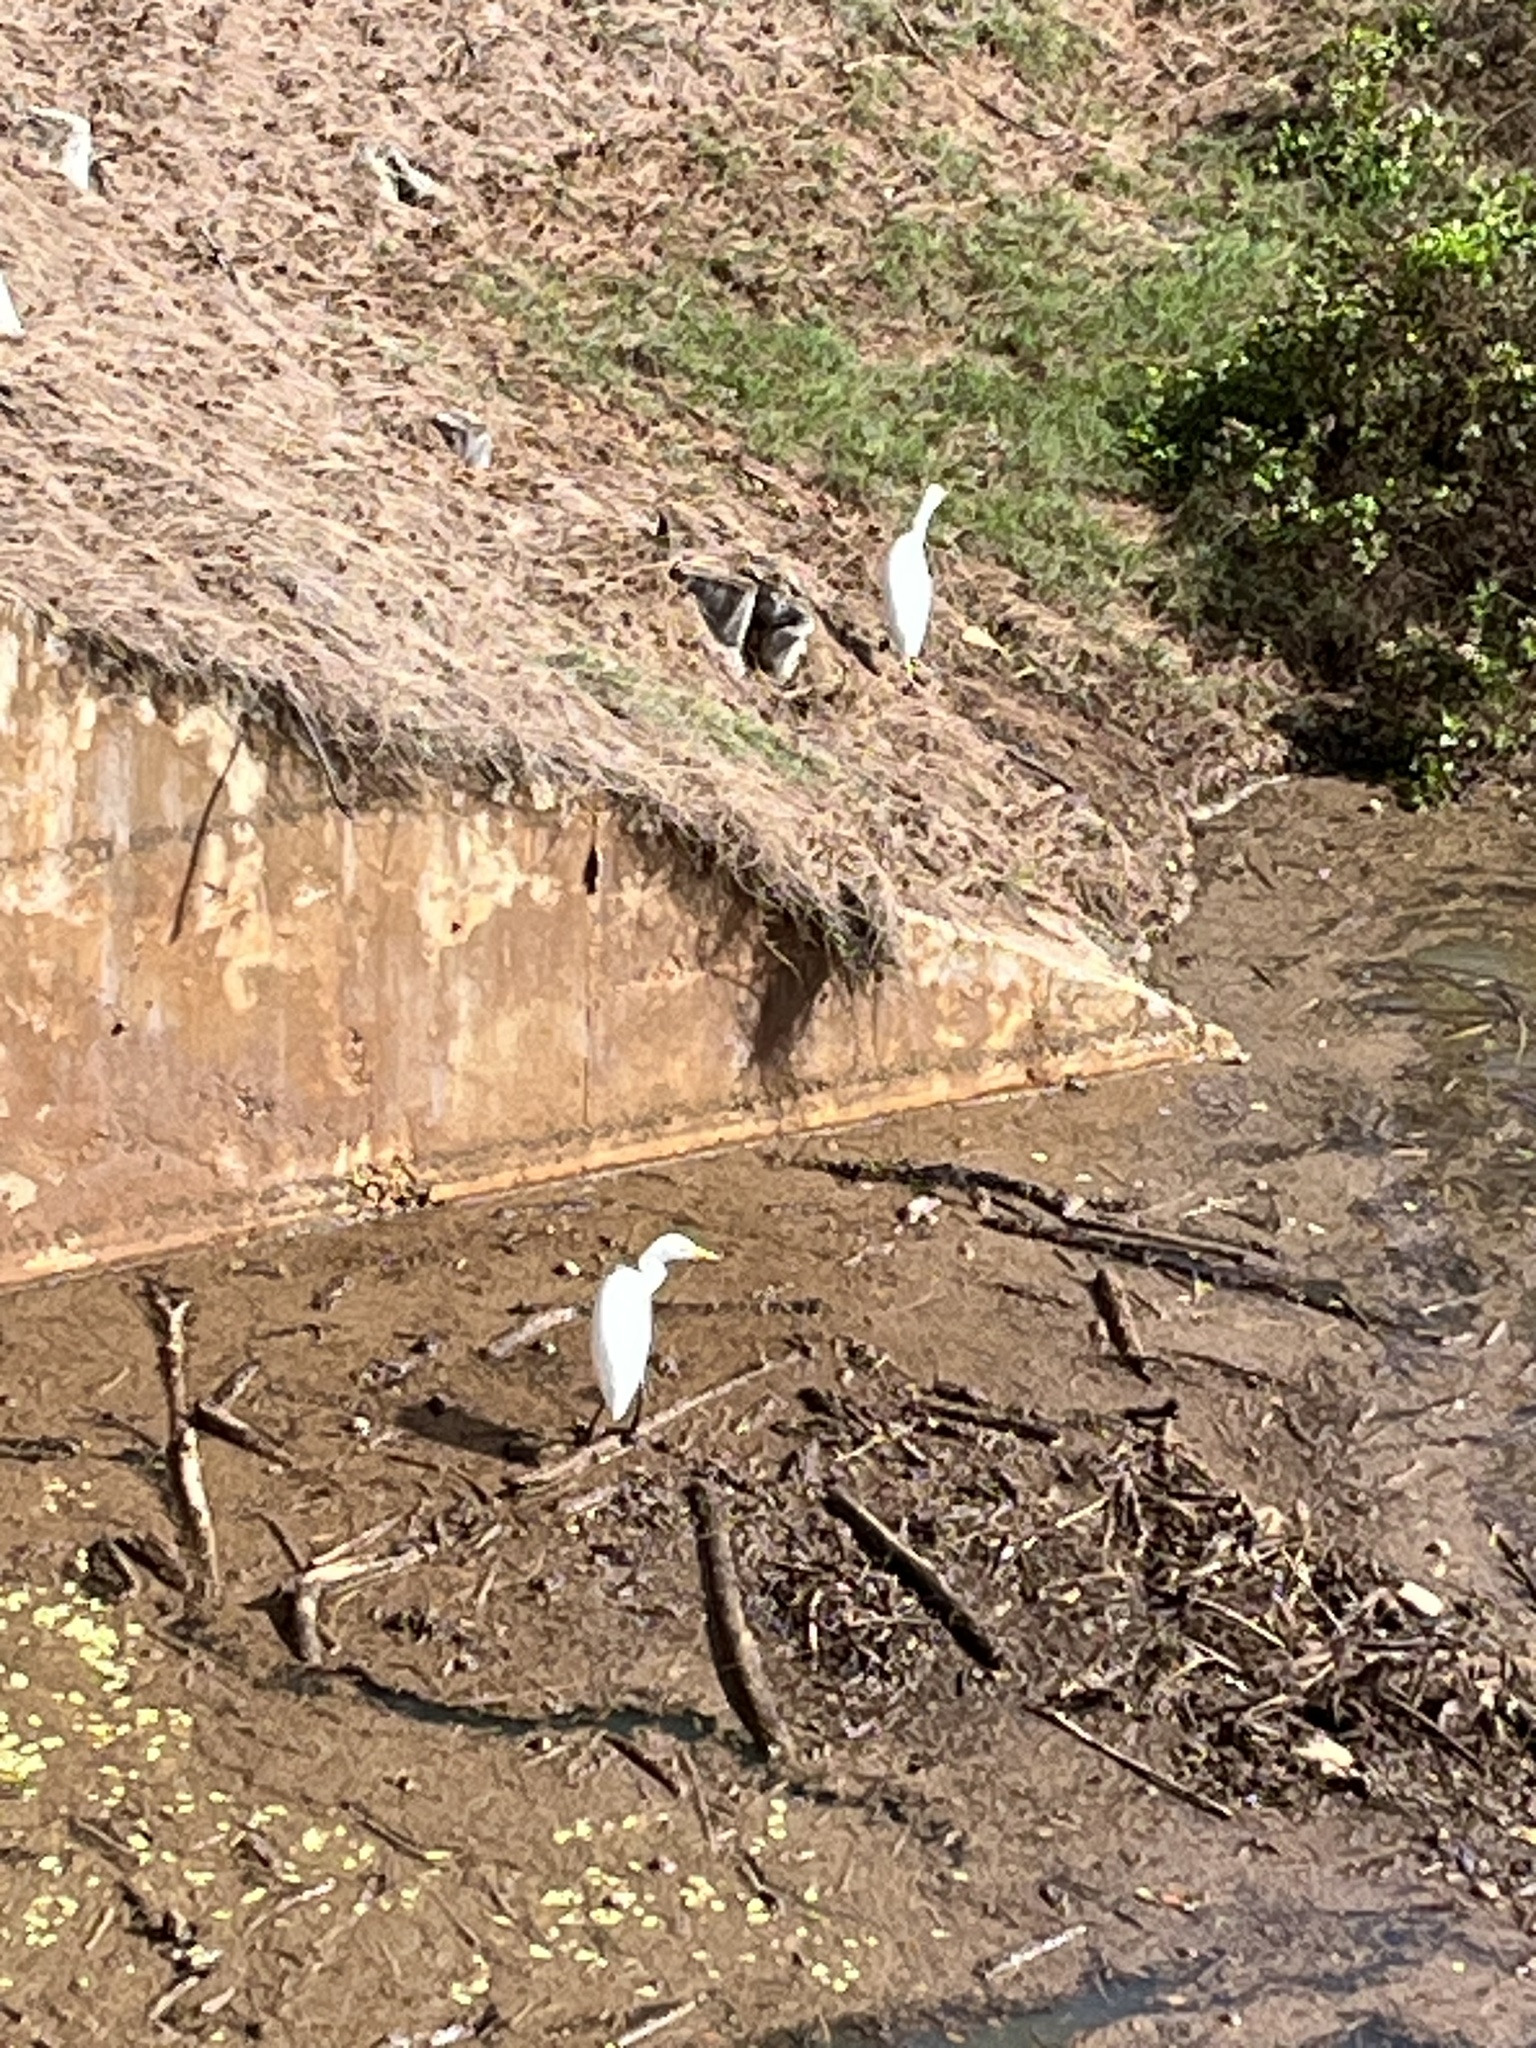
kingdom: Animalia
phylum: Chordata
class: Aves
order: Pelecaniformes
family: Ardeidae
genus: Bubulcus
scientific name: Bubulcus ibis
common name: Cattle egret
